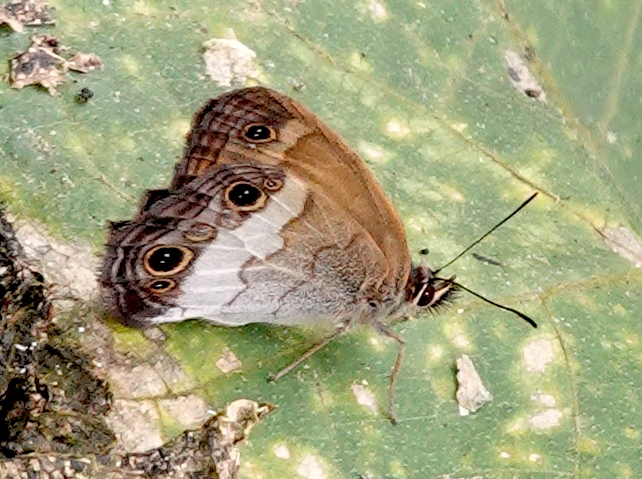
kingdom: Animalia
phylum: Arthropoda
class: Insecta
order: Lepidoptera
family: Nymphalidae
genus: Graphita
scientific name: Graphita griphe
